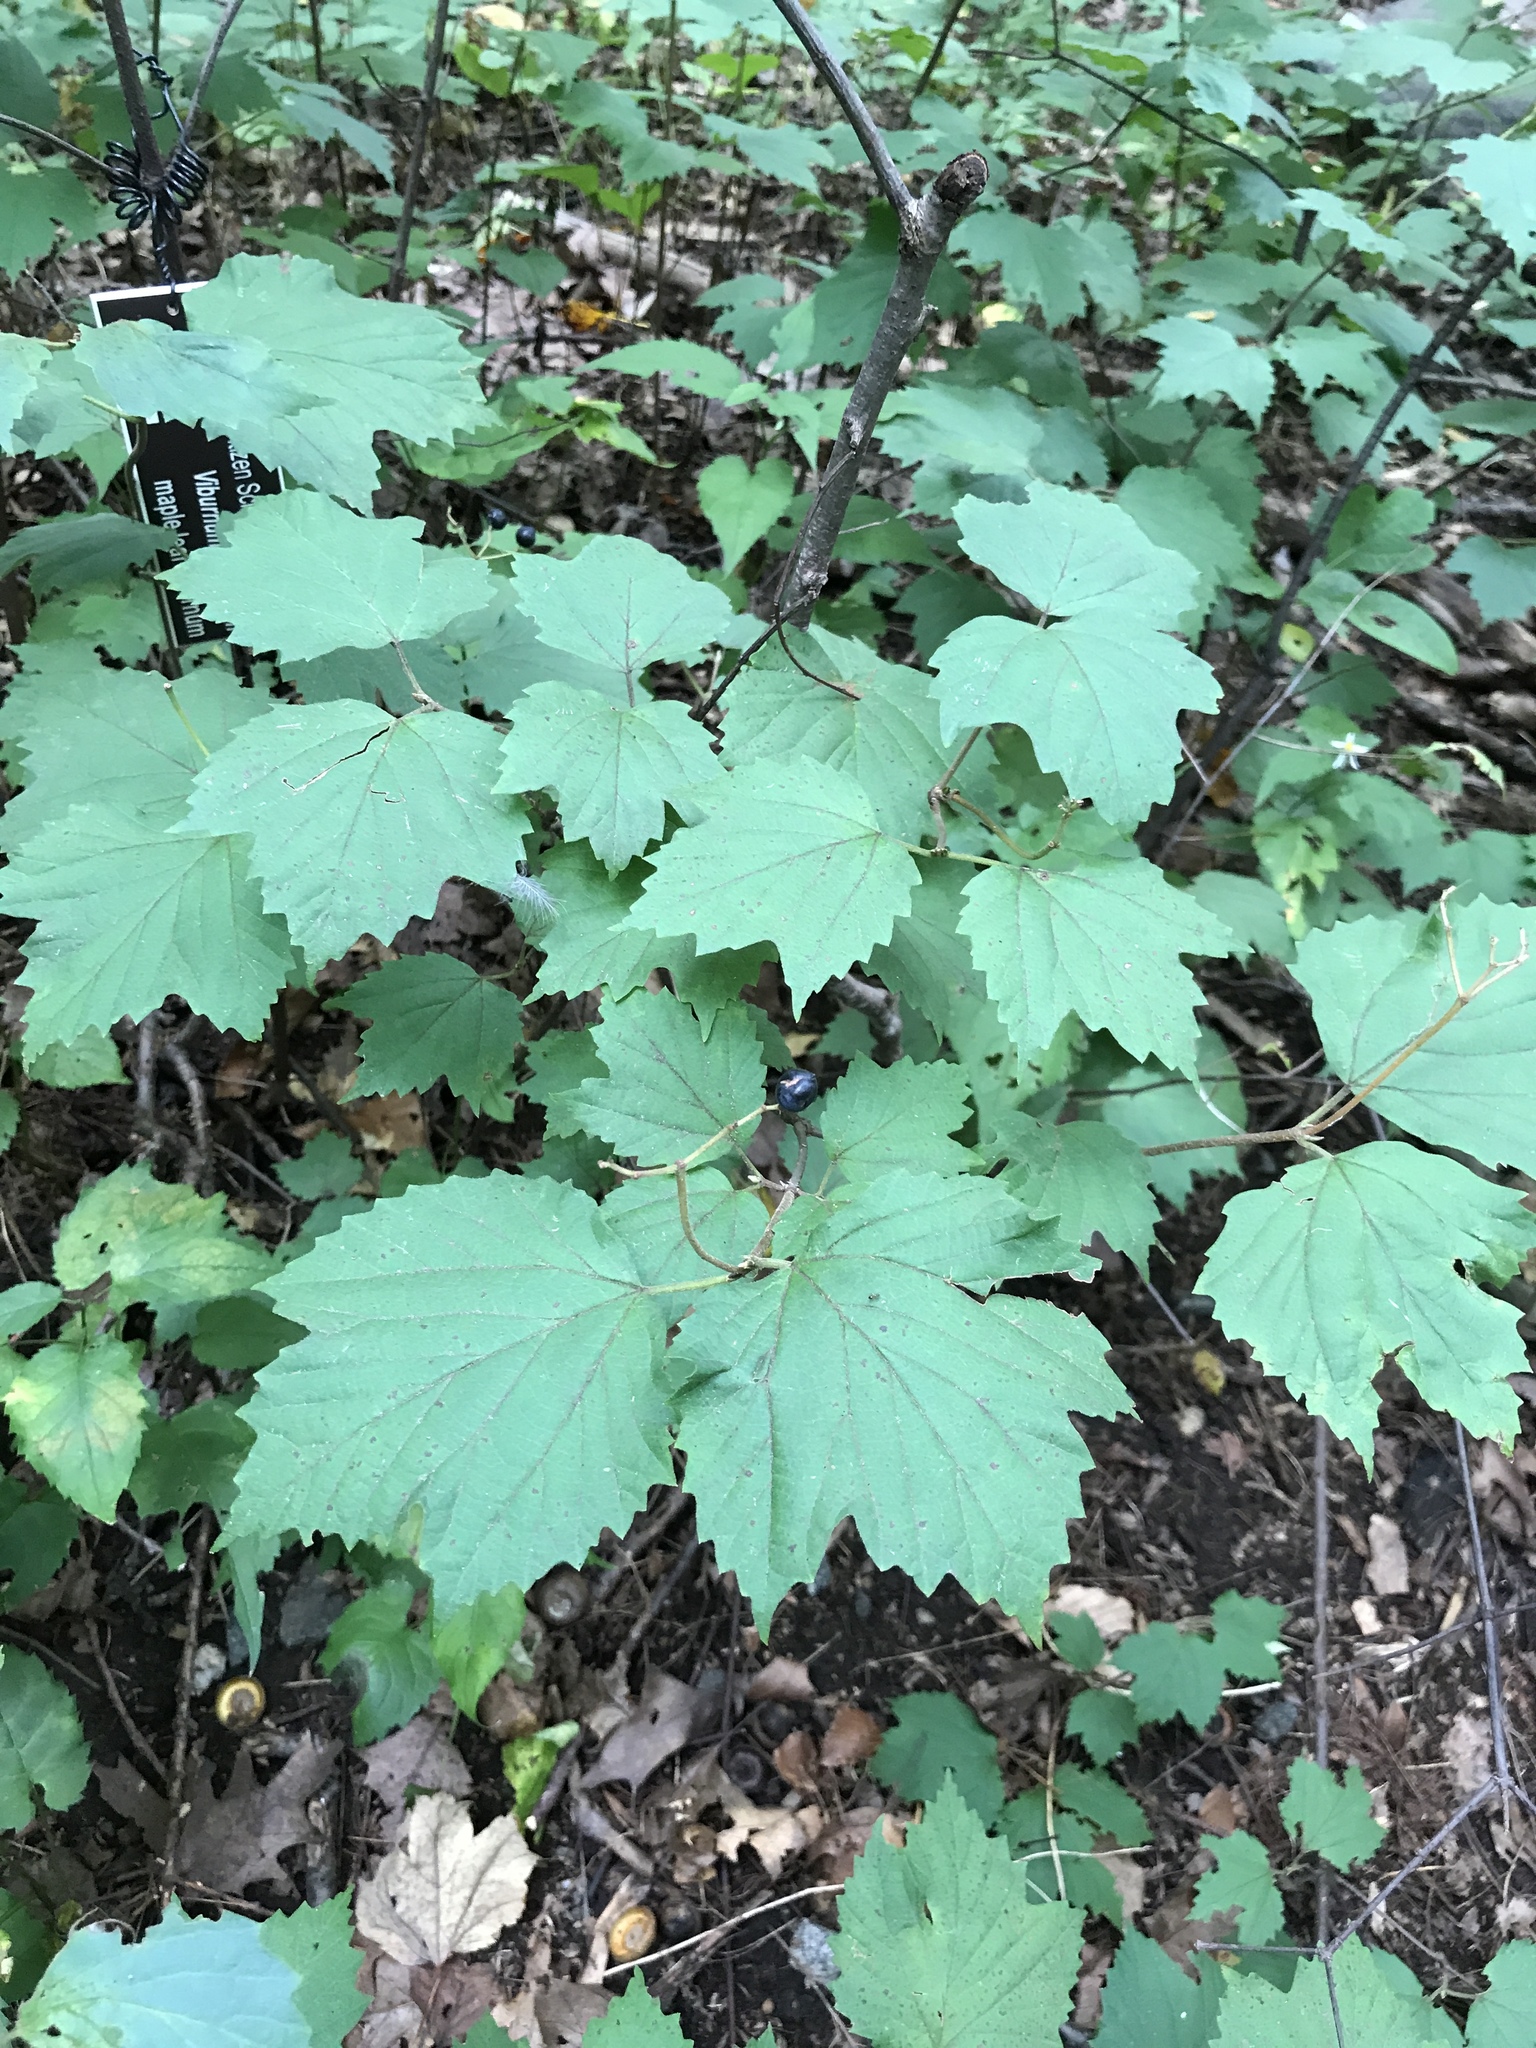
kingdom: Plantae
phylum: Tracheophyta
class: Magnoliopsida
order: Dipsacales
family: Viburnaceae
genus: Viburnum
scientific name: Viburnum acerifolium
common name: Dockmackie
